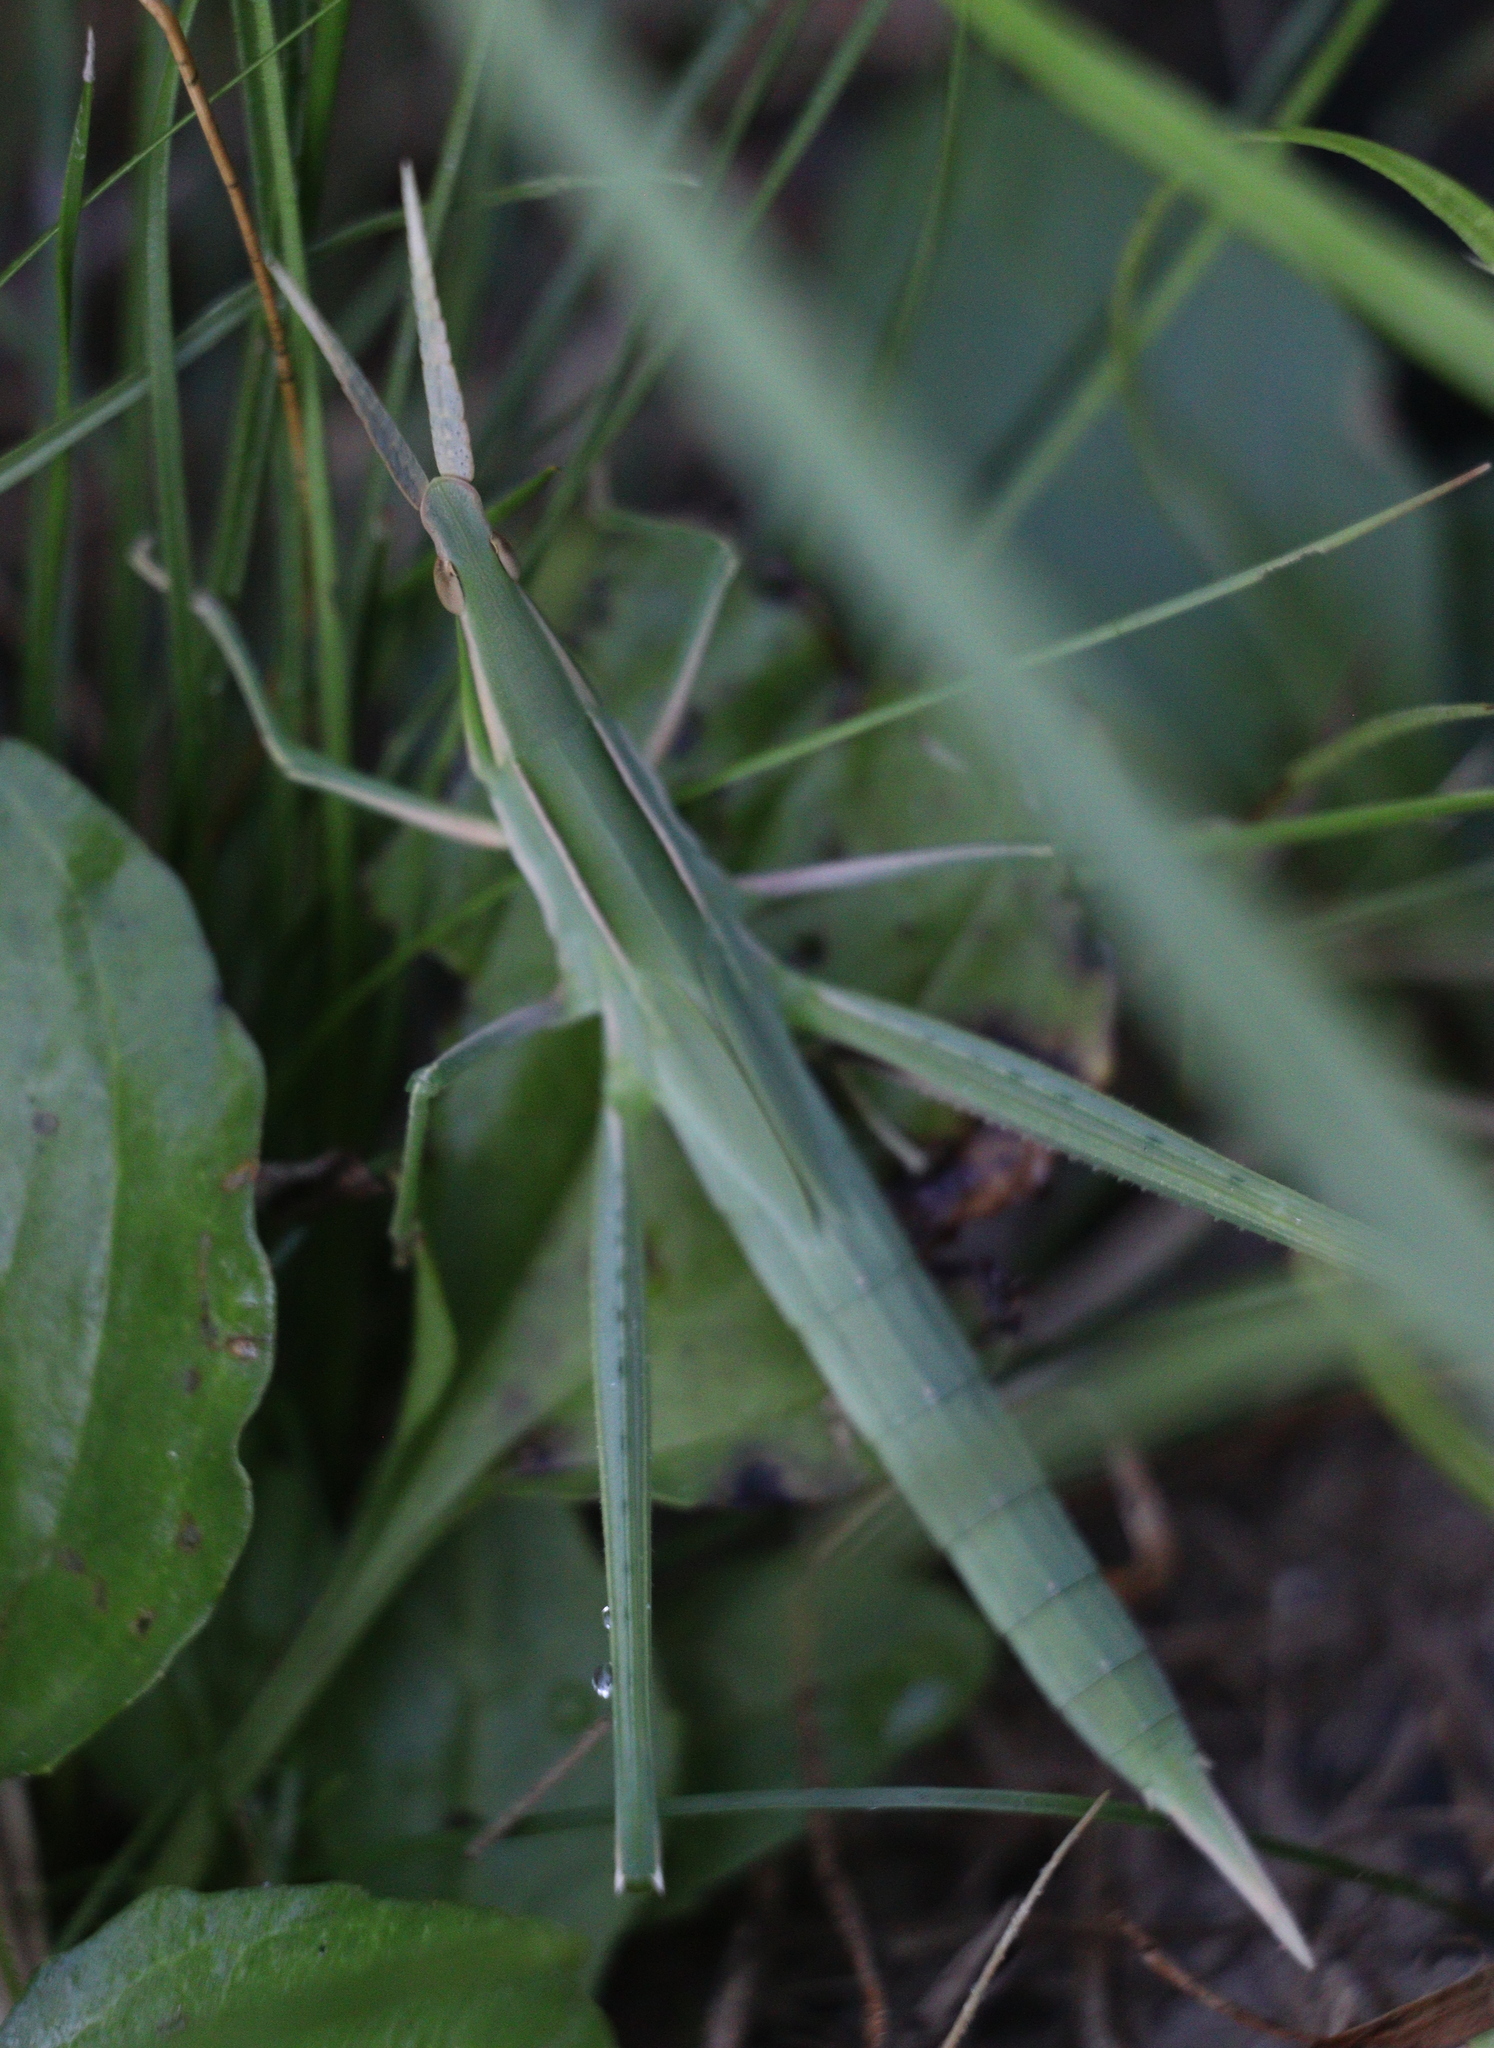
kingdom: Animalia
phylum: Arthropoda
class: Insecta
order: Orthoptera
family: Acrididae
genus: Acrida
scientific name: Acrida cinerea
